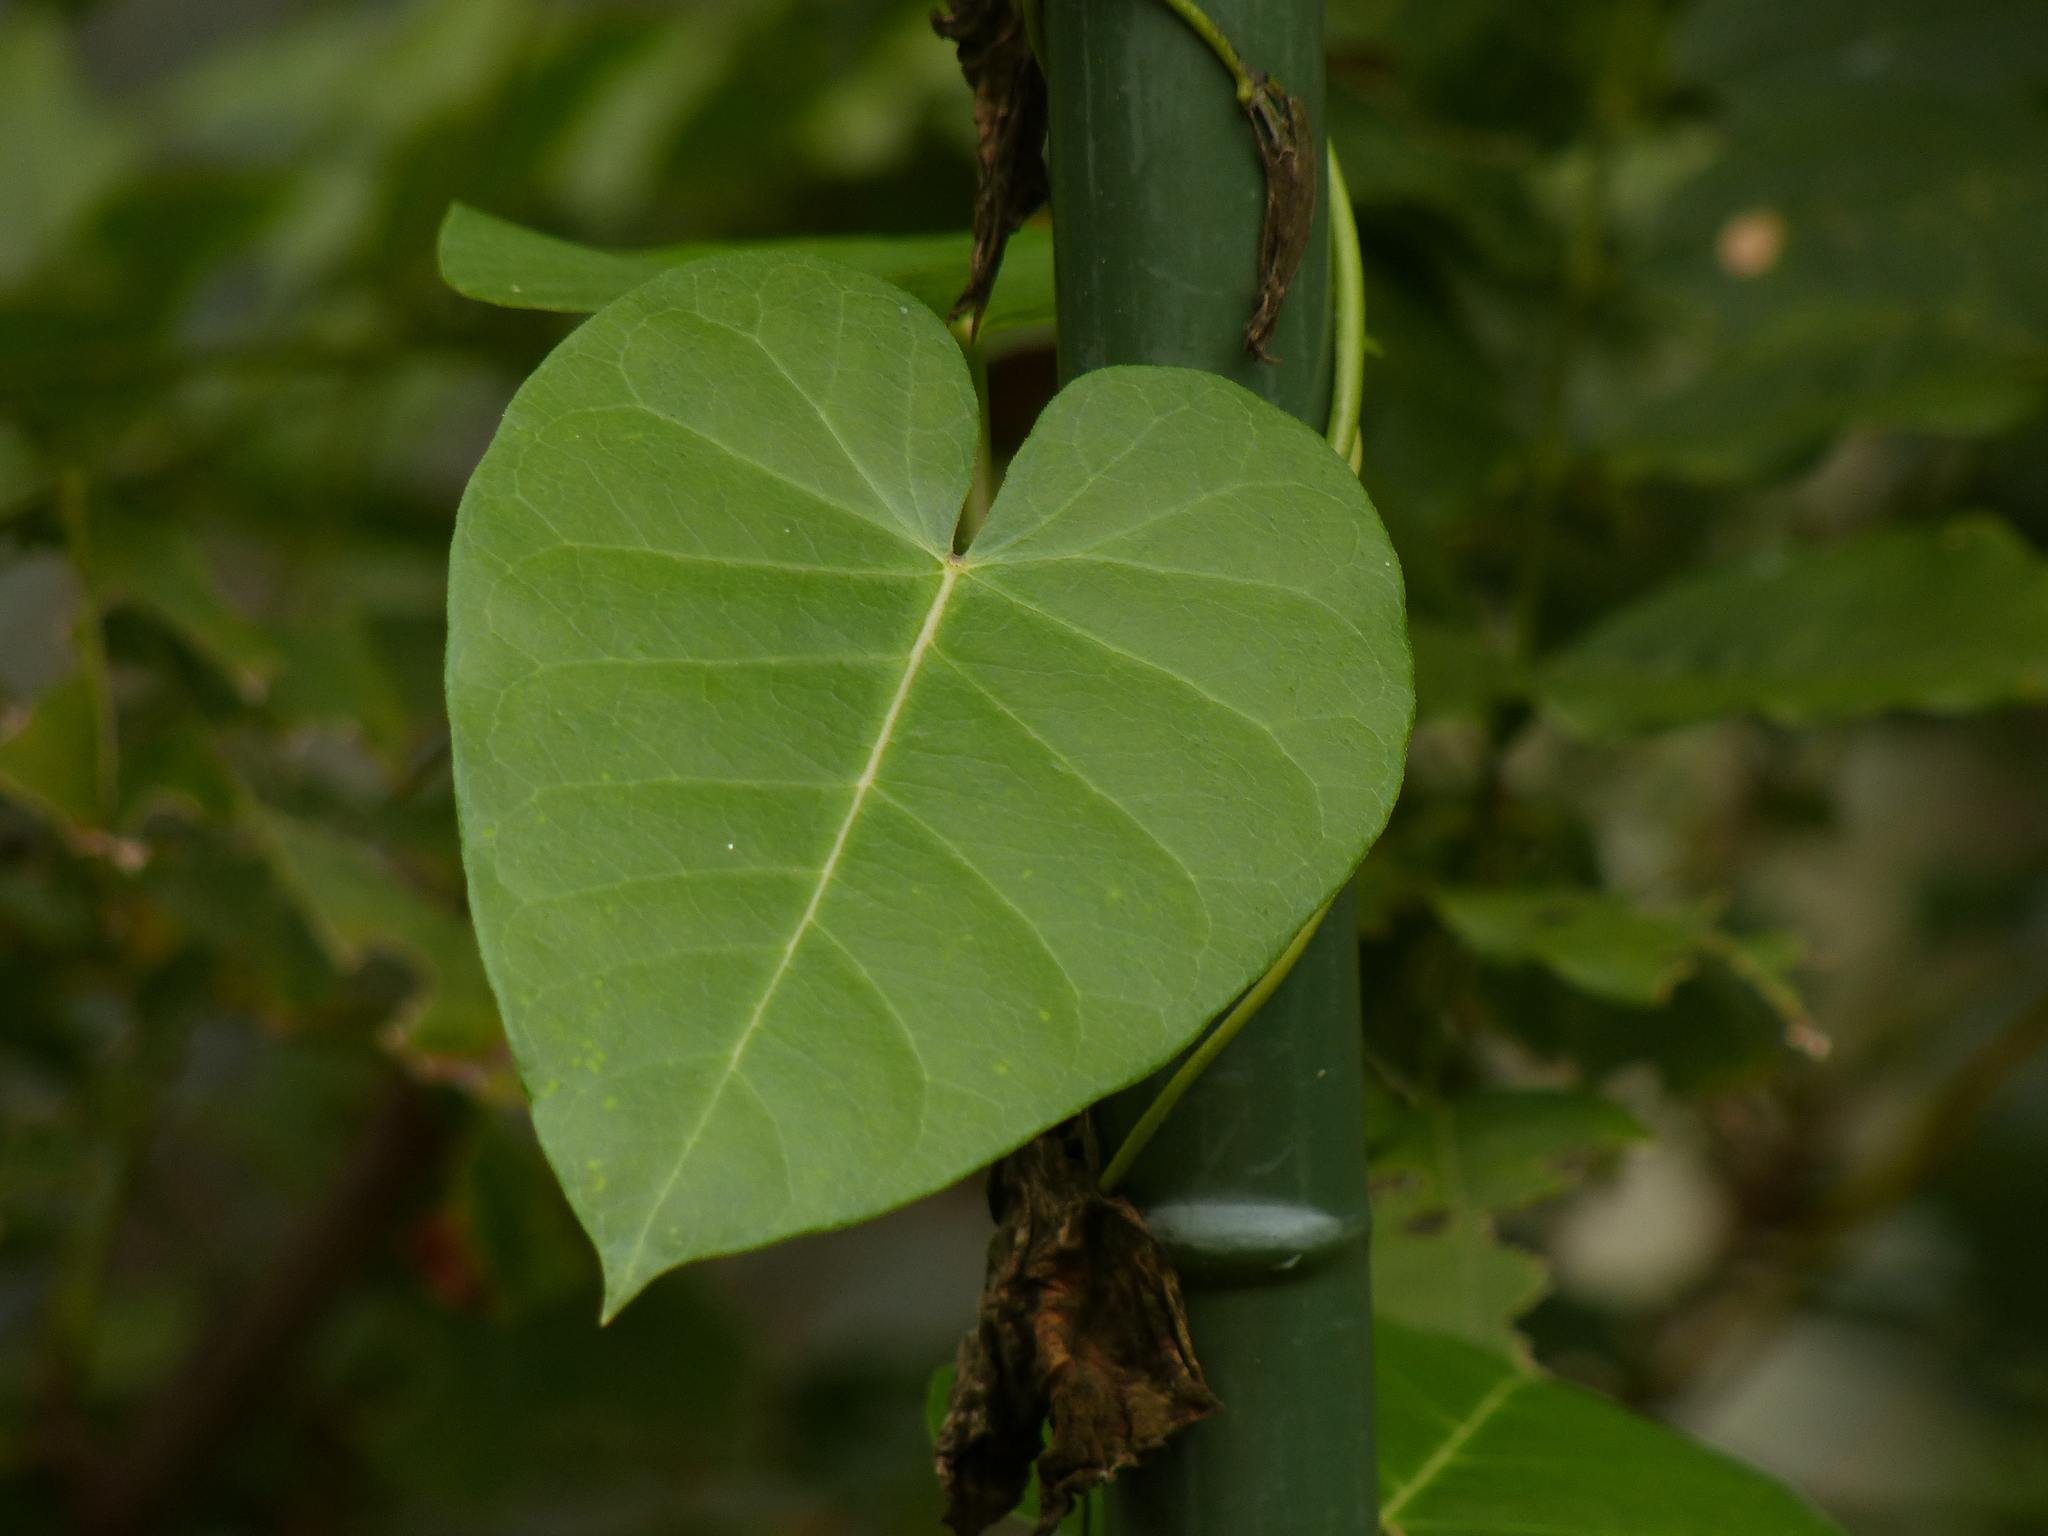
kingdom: Plantae
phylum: Tracheophyta
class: Magnoliopsida
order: Gentianales
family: Apocynaceae
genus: Cynanchum
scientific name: Cynanchum rostellatum
